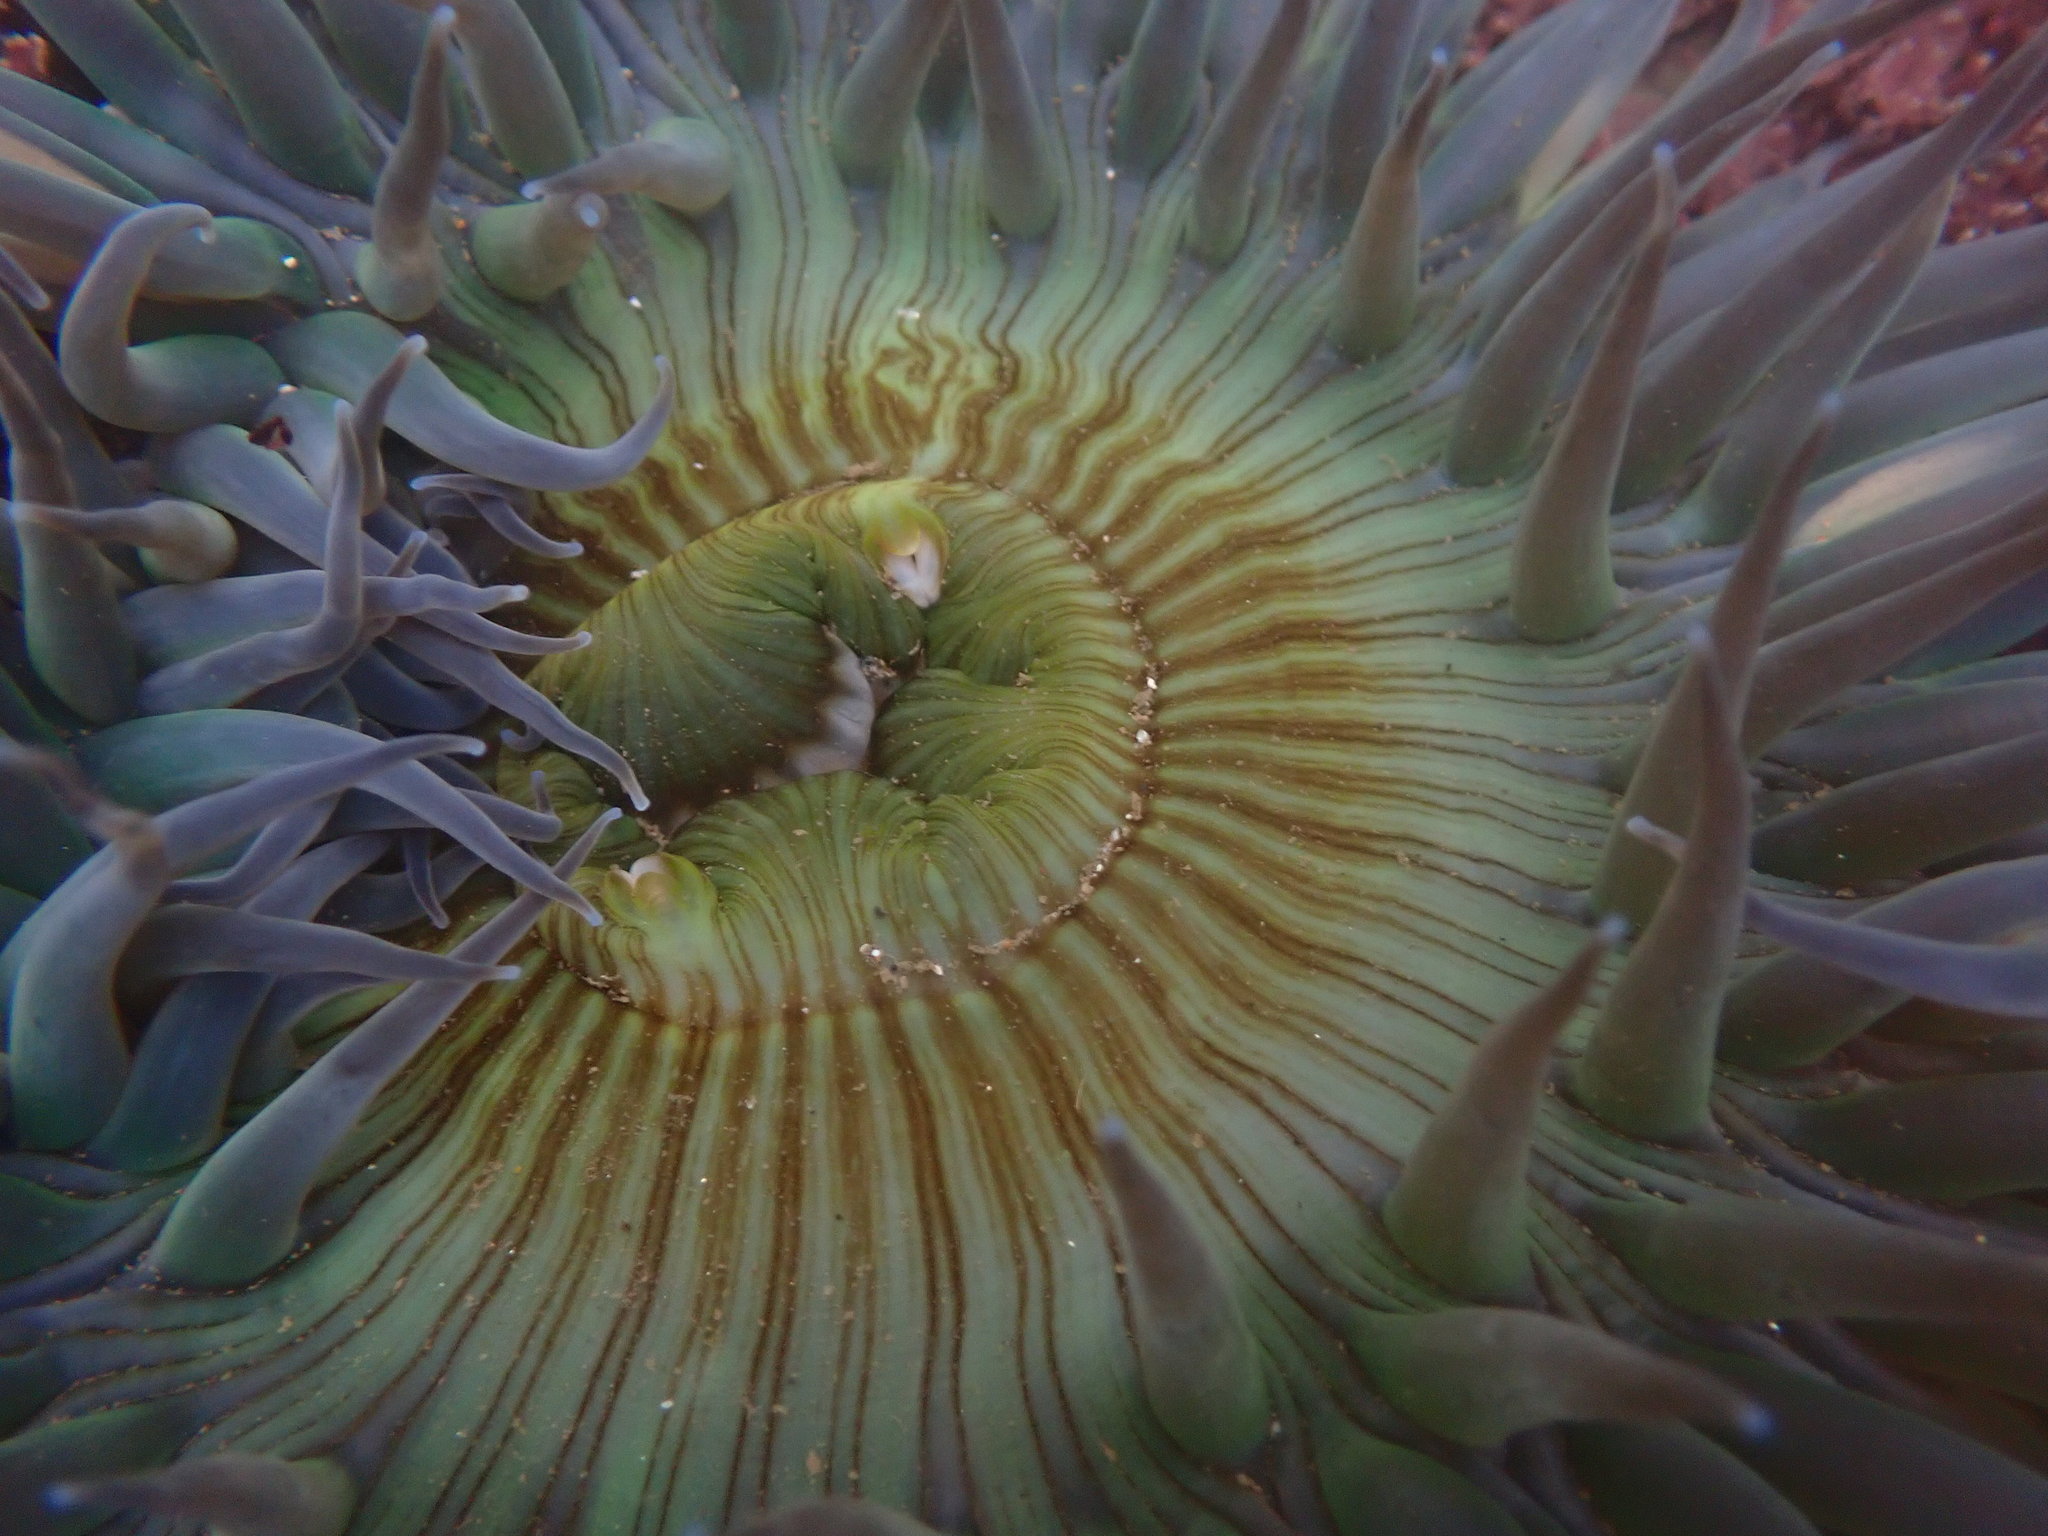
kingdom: Animalia
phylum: Cnidaria
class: Anthozoa
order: Actiniaria
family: Actiniidae
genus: Anthopleura
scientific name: Anthopleura sola
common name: Sun anemone
